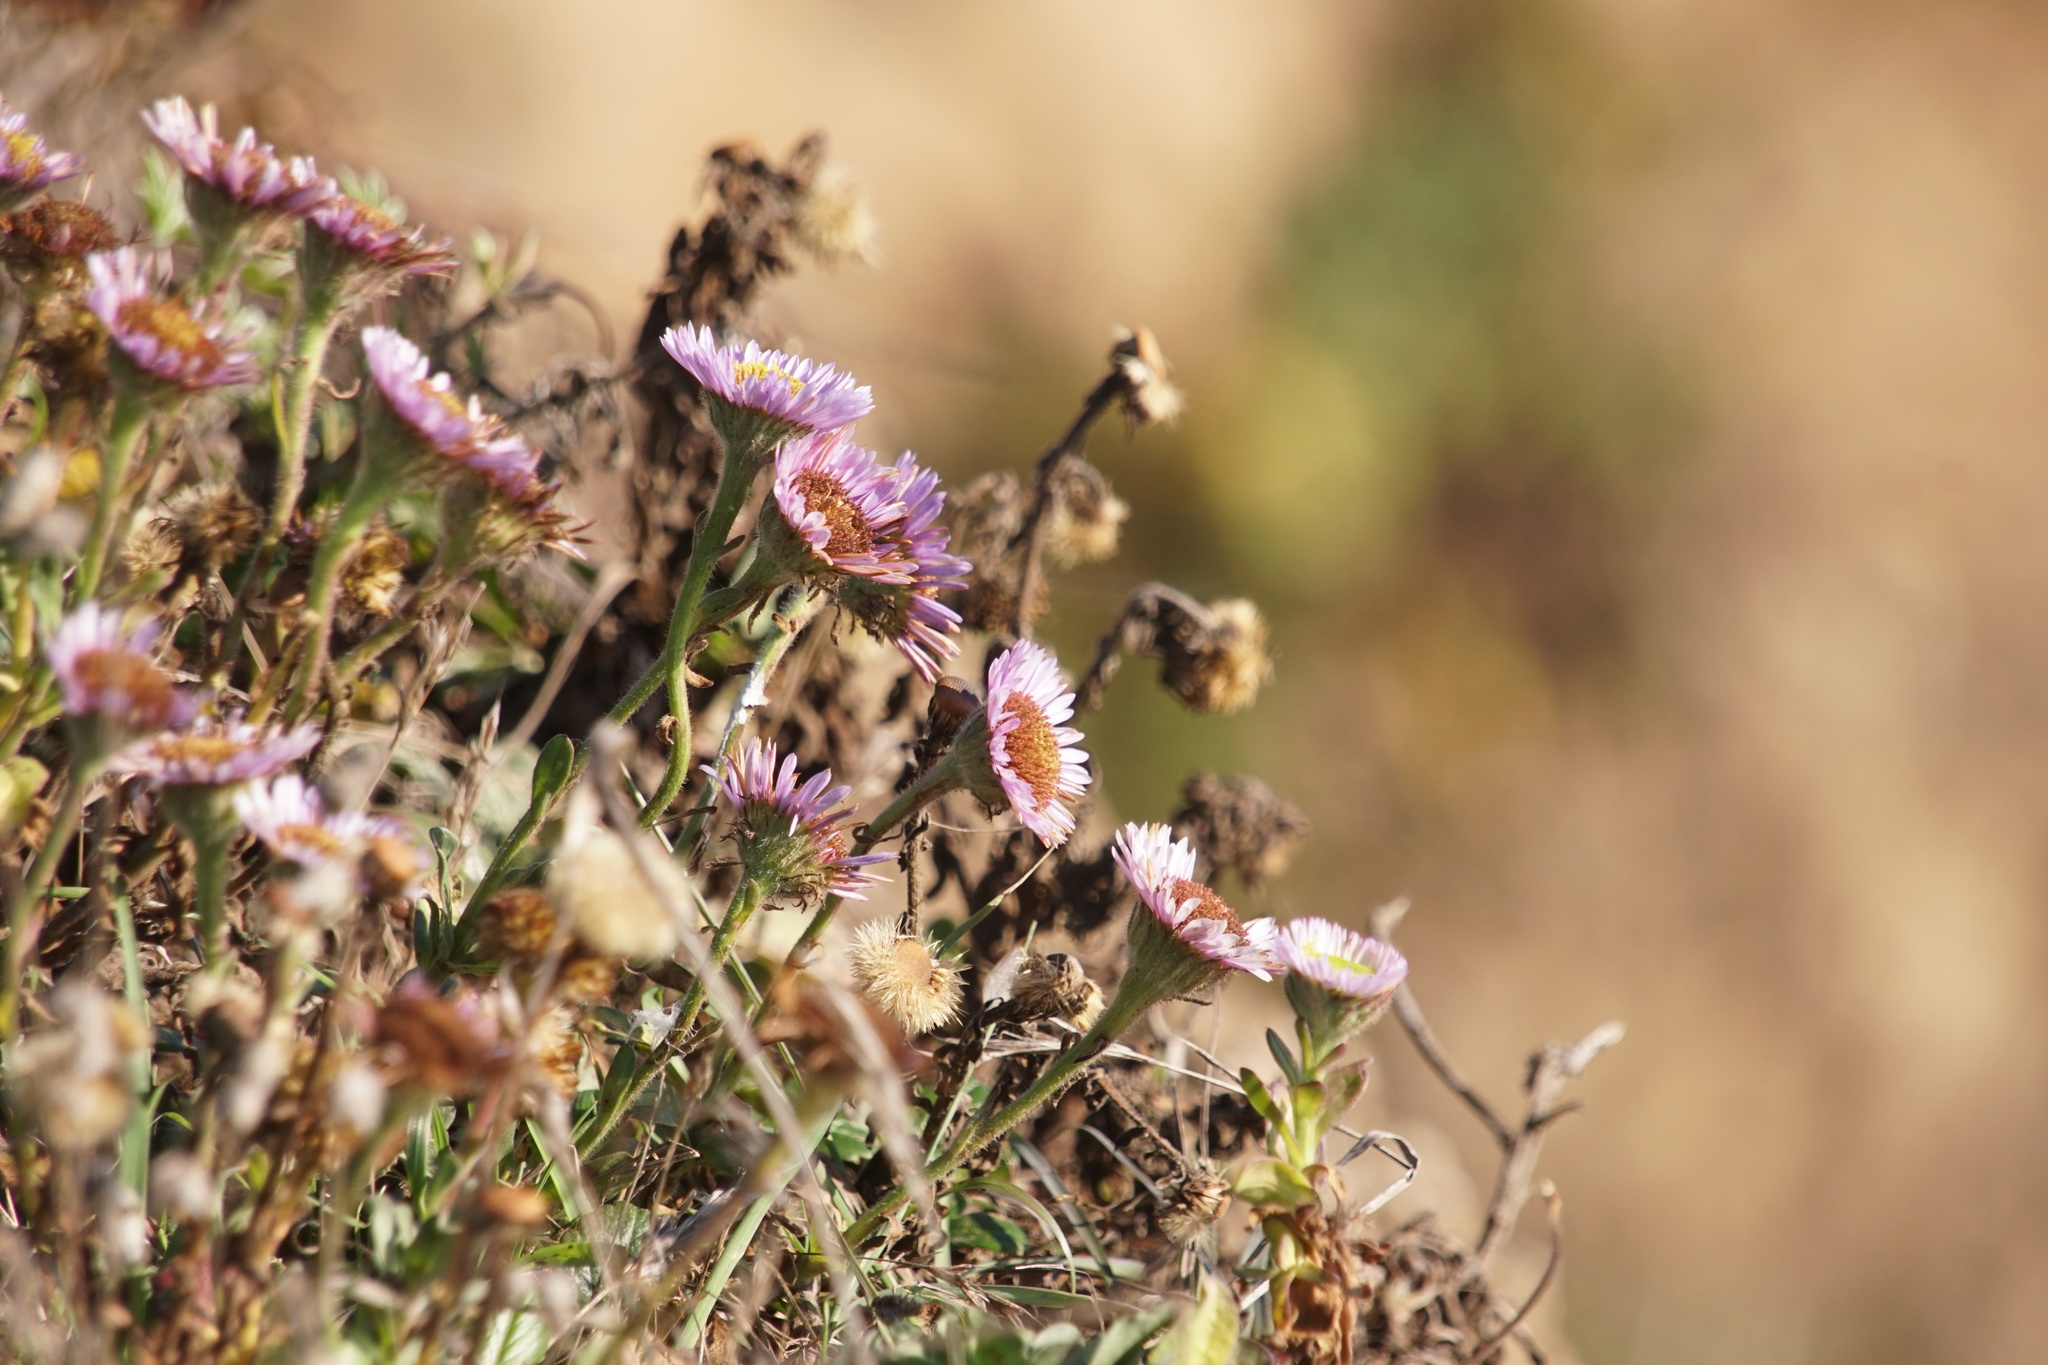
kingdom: Plantae
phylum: Tracheophyta
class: Magnoliopsida
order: Asterales
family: Asteraceae
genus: Erigeron
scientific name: Erigeron glaucus
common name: Seaside daisy
